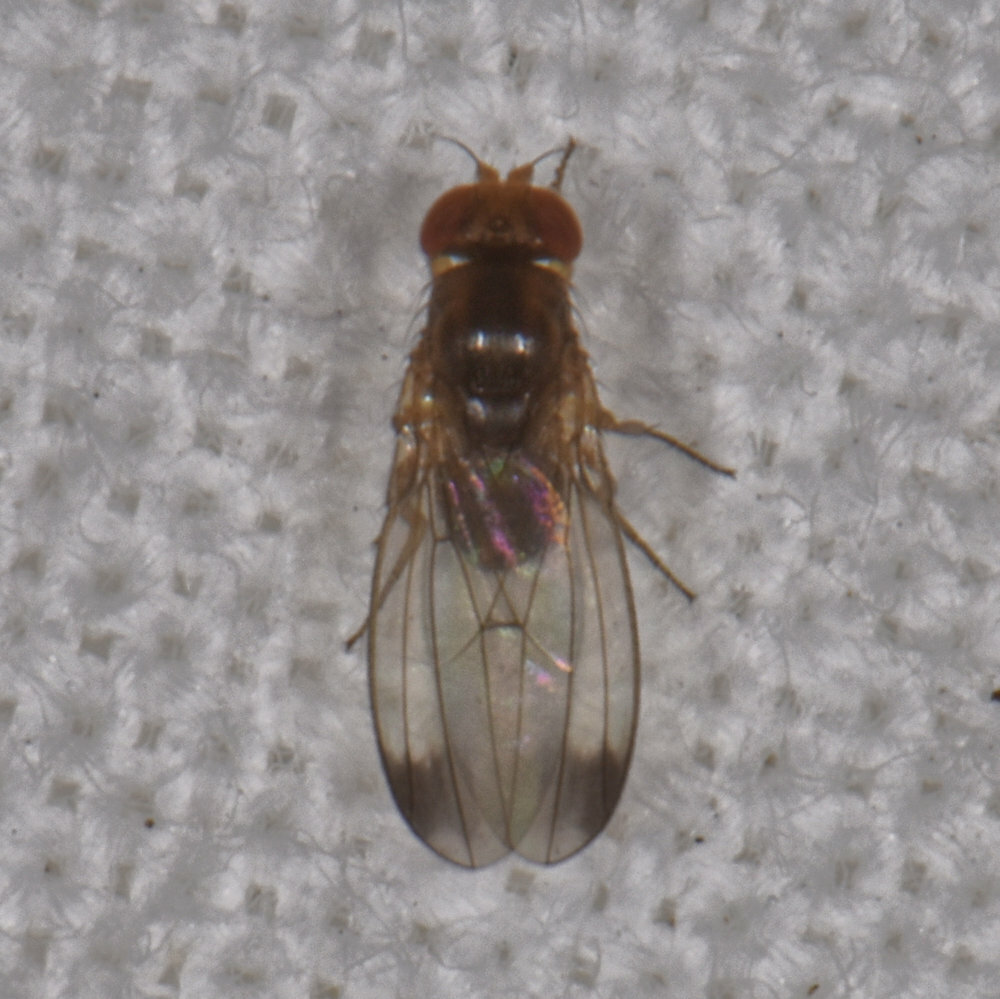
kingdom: Animalia
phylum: Arthropoda
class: Insecta
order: Diptera
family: Drosophilidae
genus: Drosophila
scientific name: Drosophila suzukii
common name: Spotted-wing drosophila
